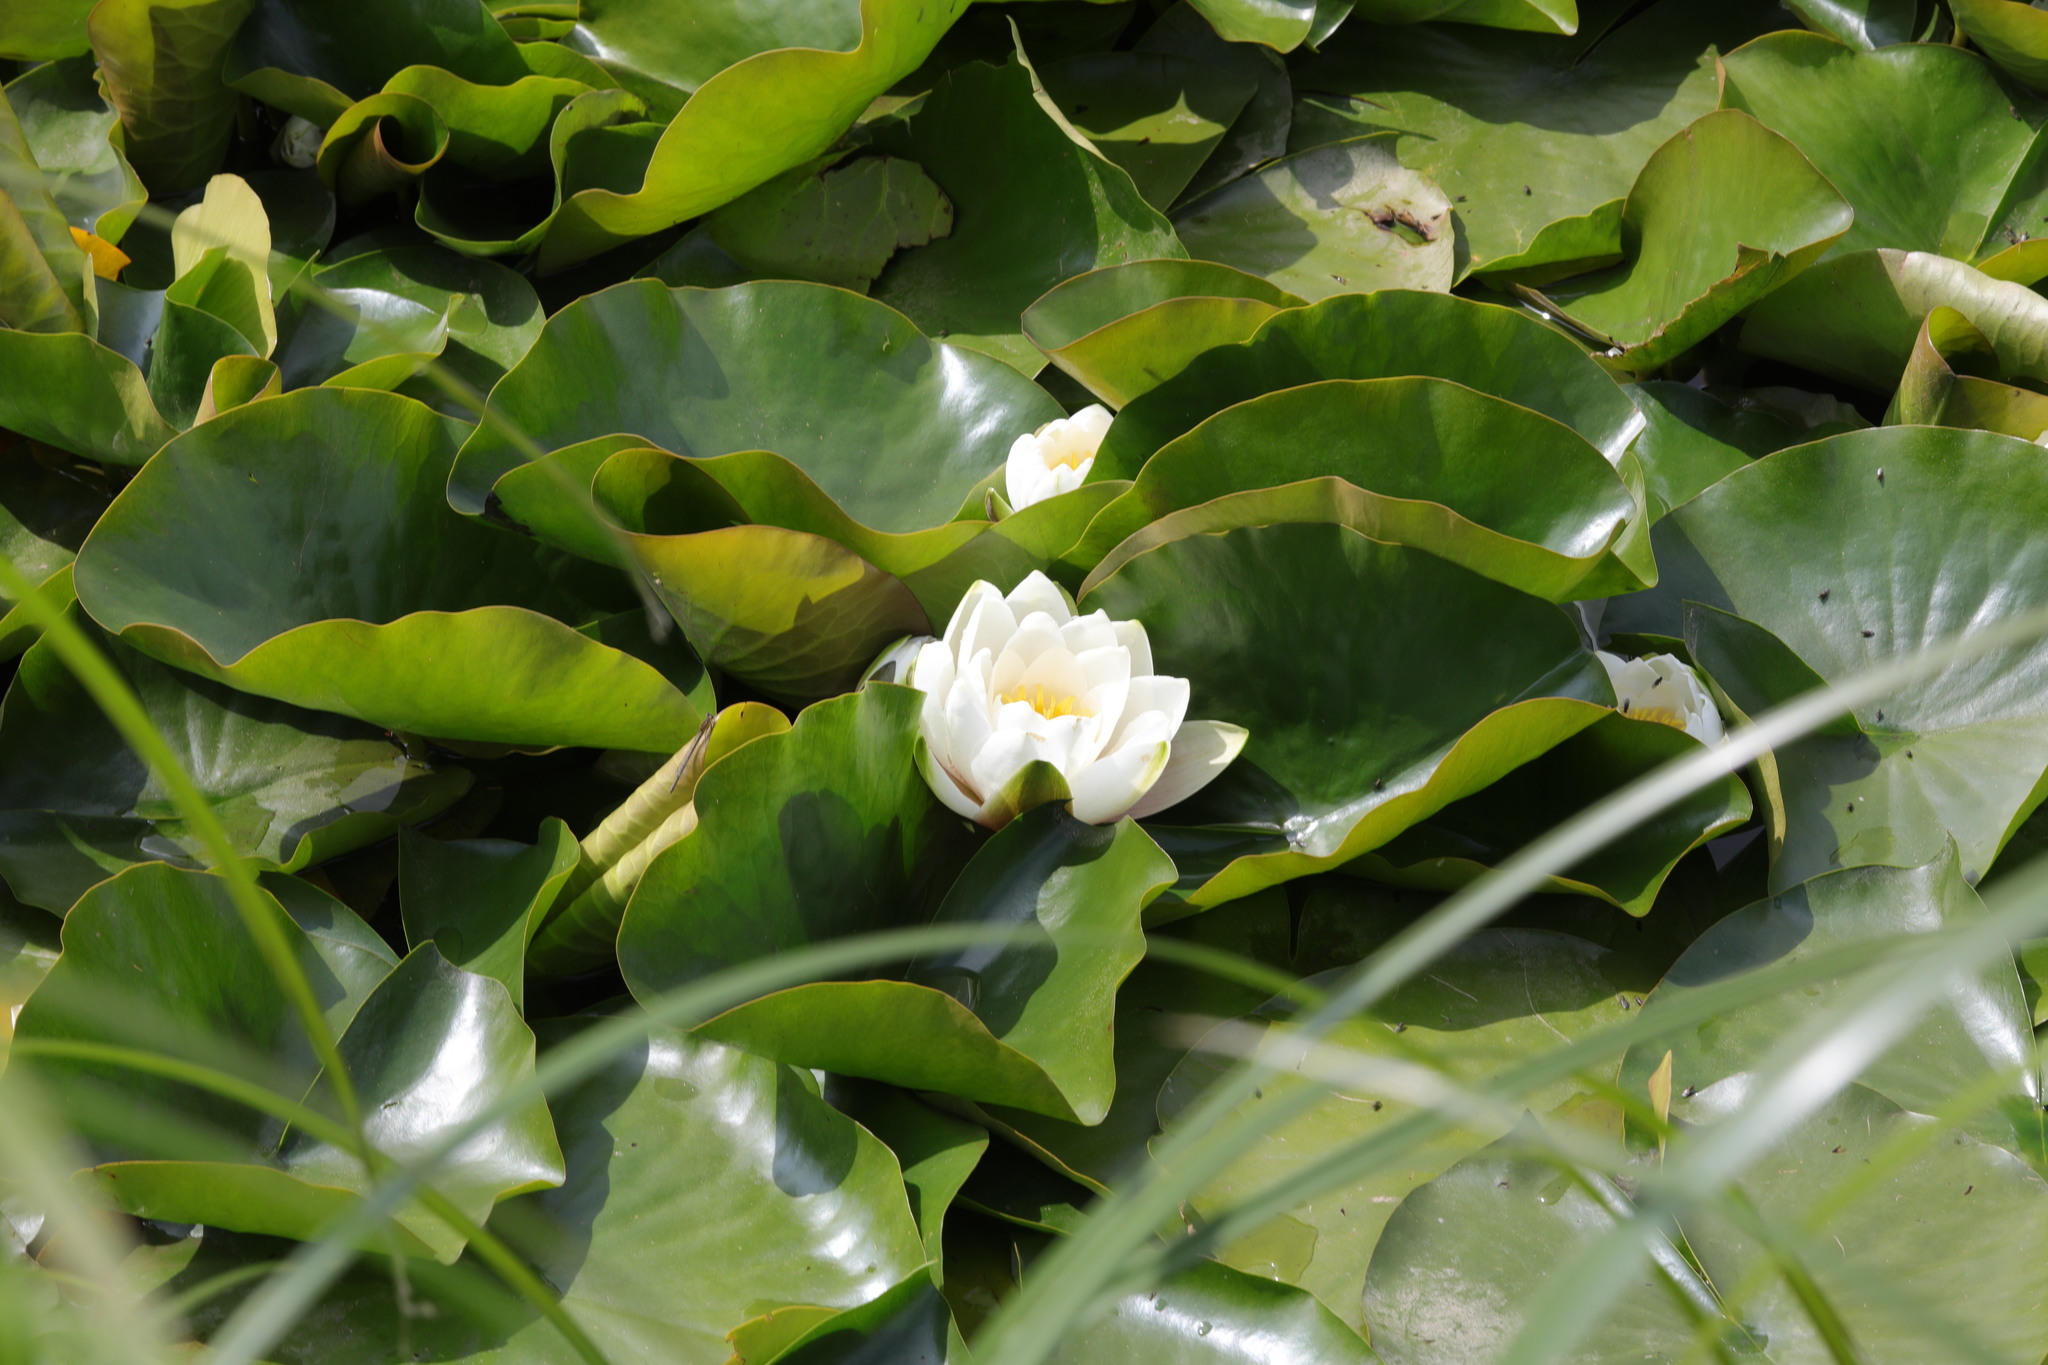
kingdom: Plantae
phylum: Tracheophyta
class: Magnoliopsida
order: Nymphaeales
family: Nymphaeaceae
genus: Nymphaea
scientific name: Nymphaea alba
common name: White water-lily
